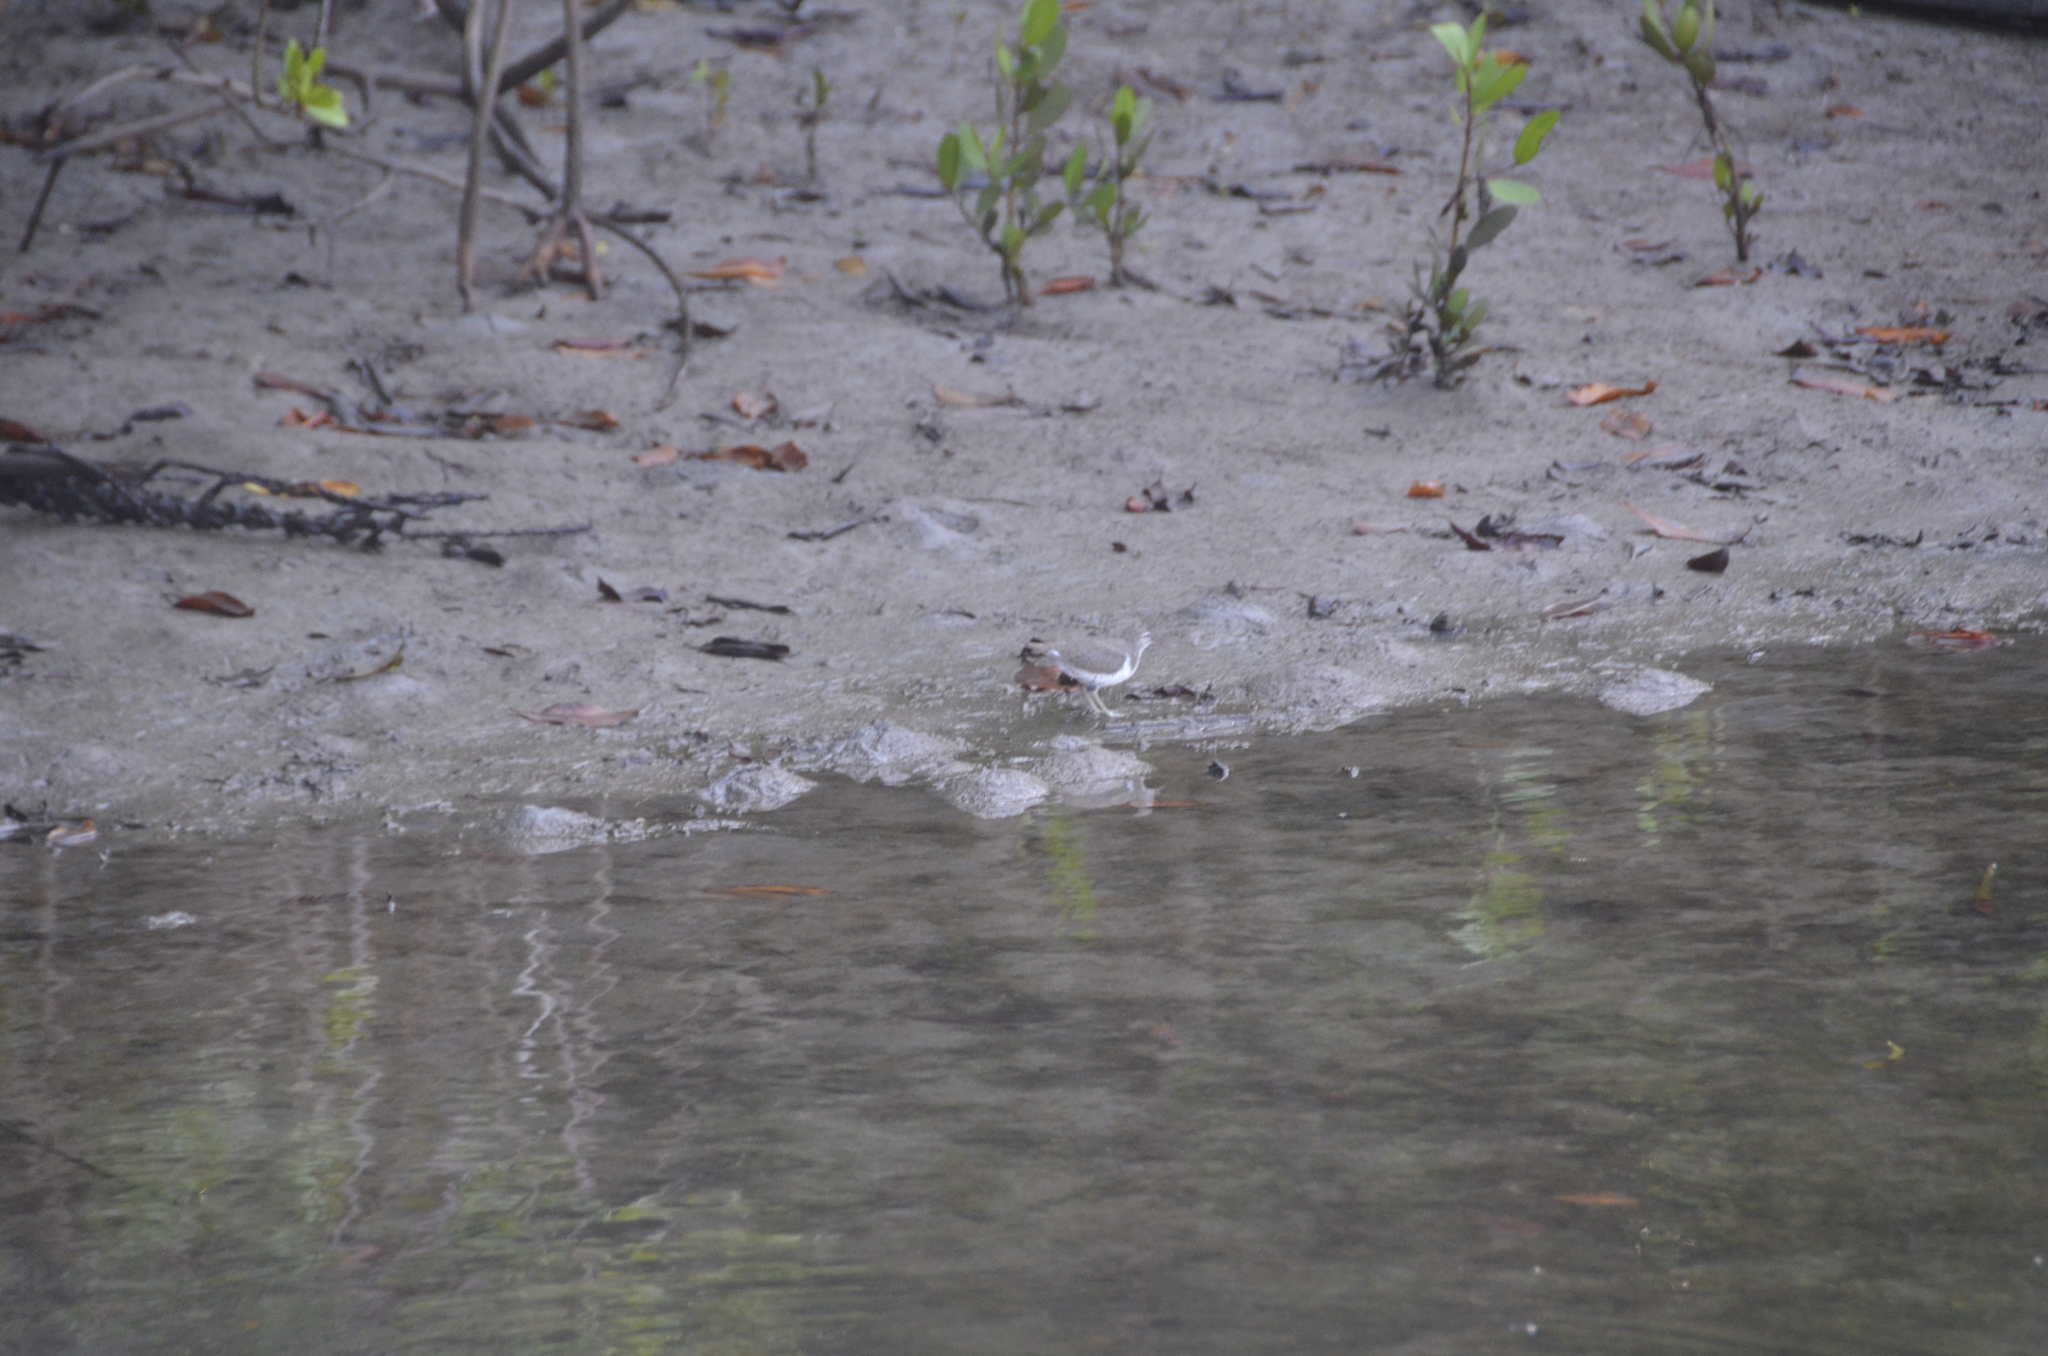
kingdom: Animalia
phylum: Chordata
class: Aves
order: Charadriiformes
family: Scolopacidae
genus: Actitis
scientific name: Actitis macularius
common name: Spotted sandpiper
